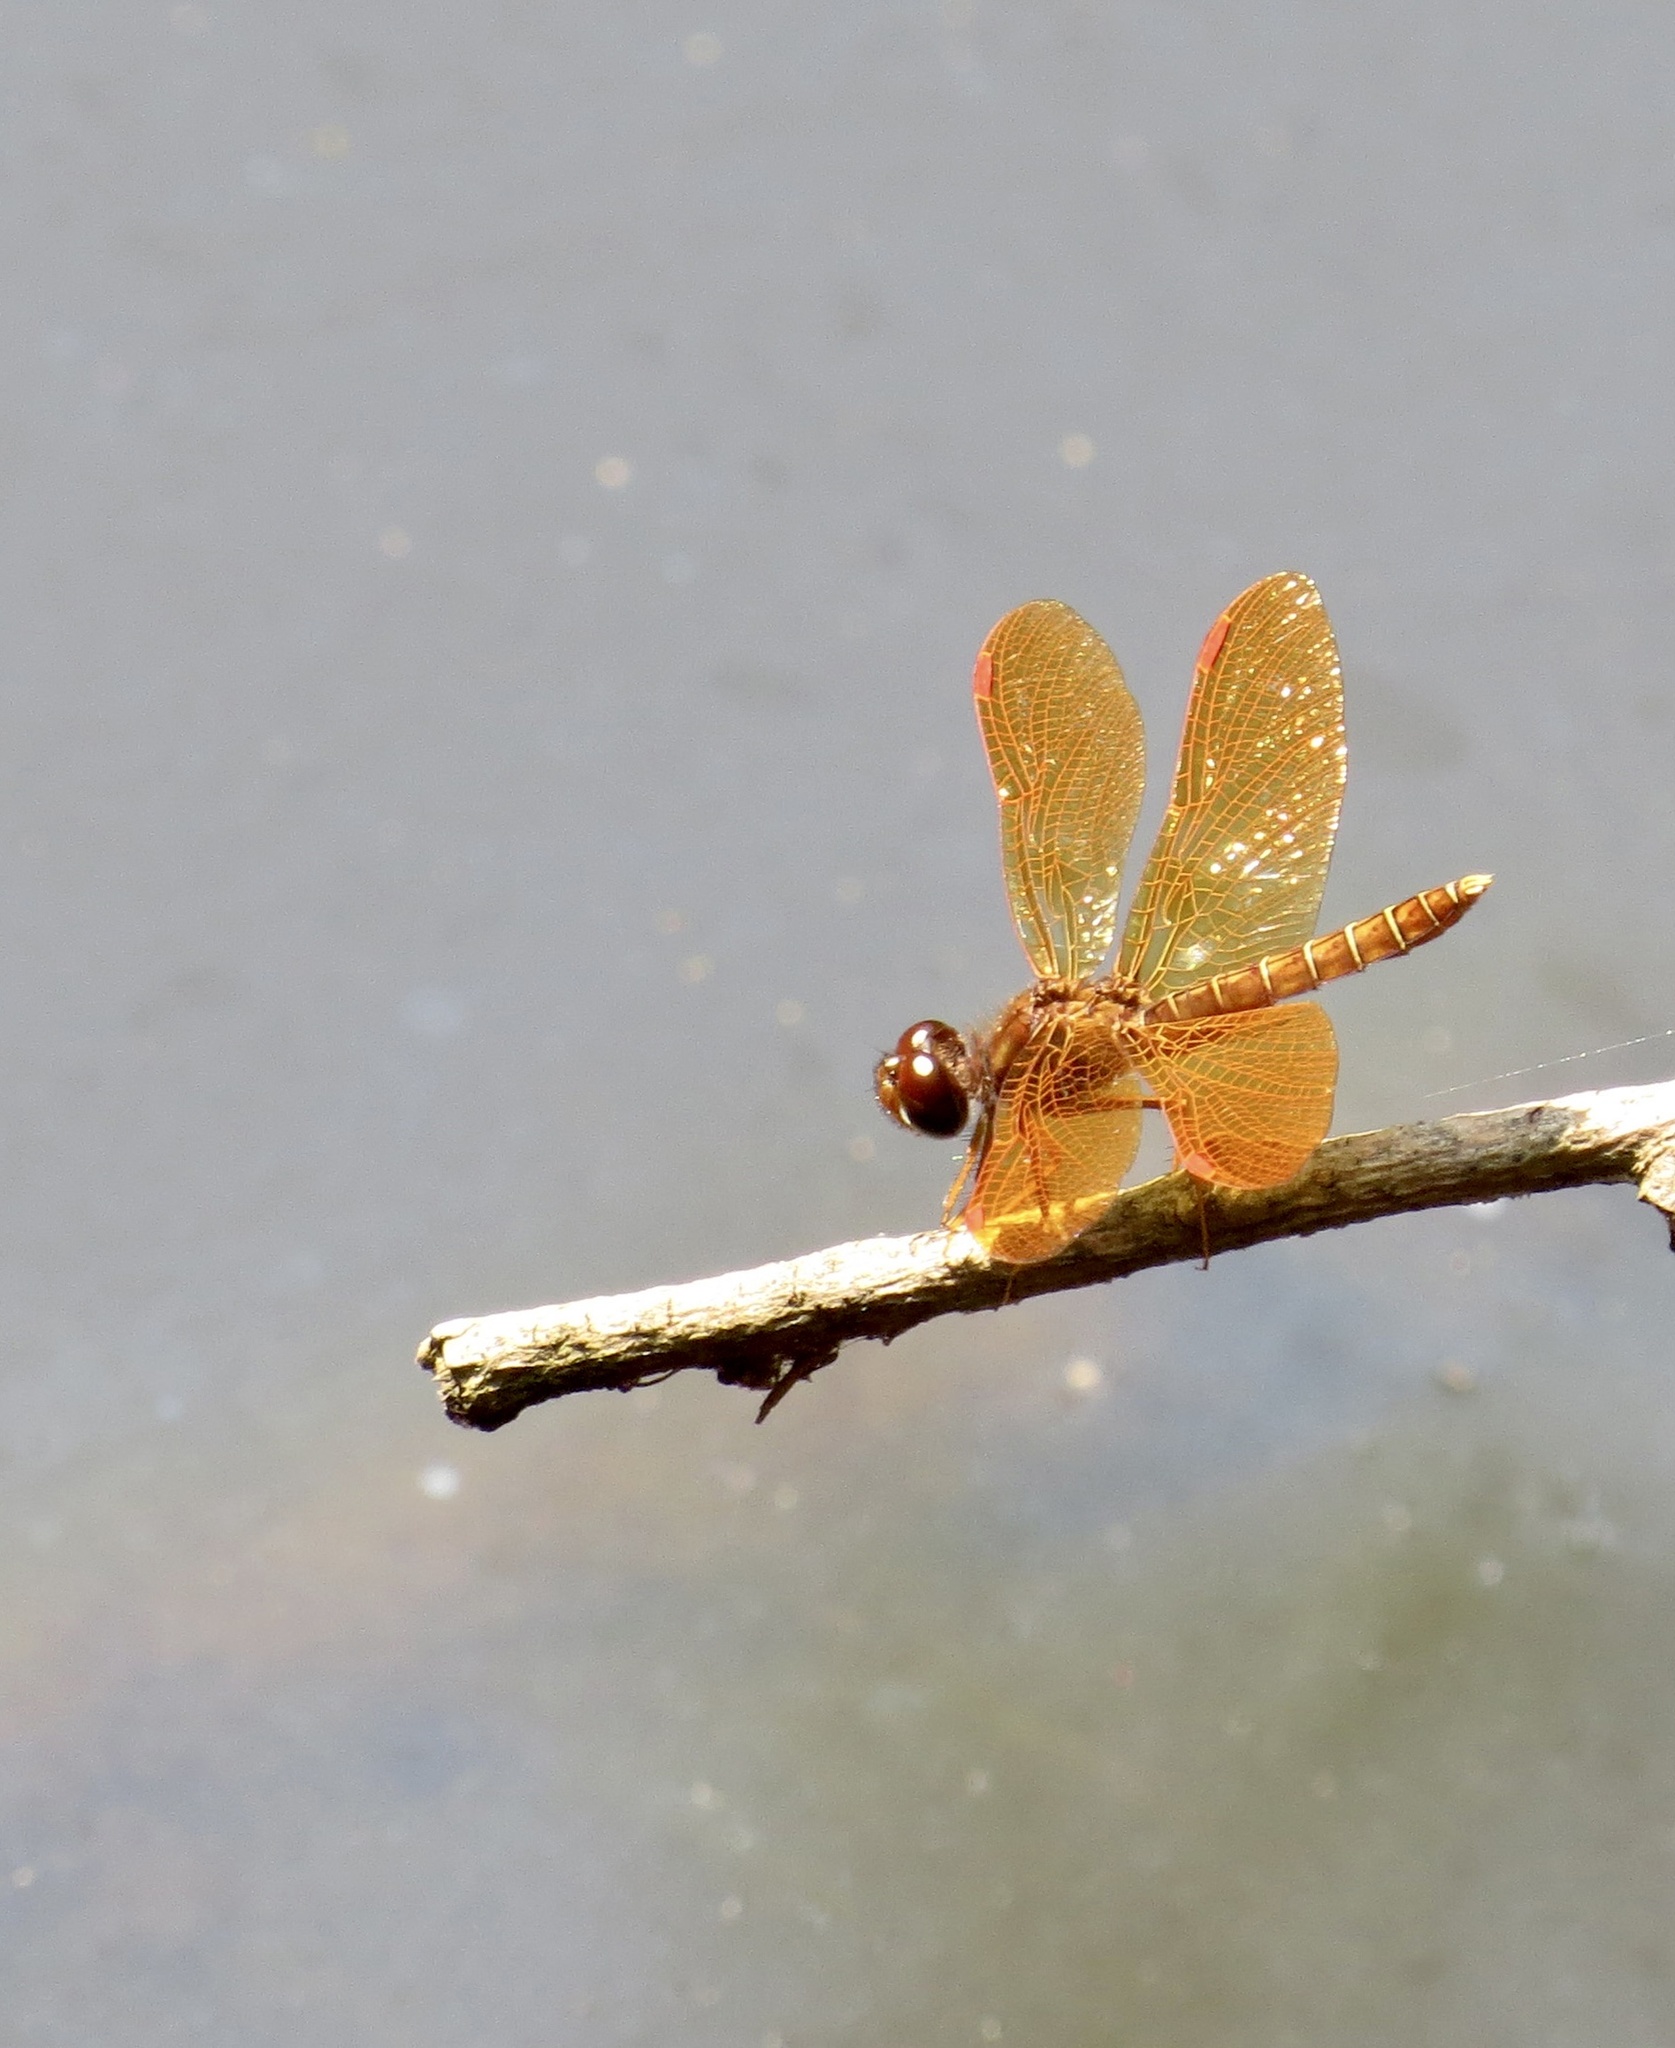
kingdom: Animalia
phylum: Arthropoda
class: Insecta
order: Odonata
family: Libellulidae
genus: Perithemis
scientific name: Perithemis tenera
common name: Eastern amberwing
